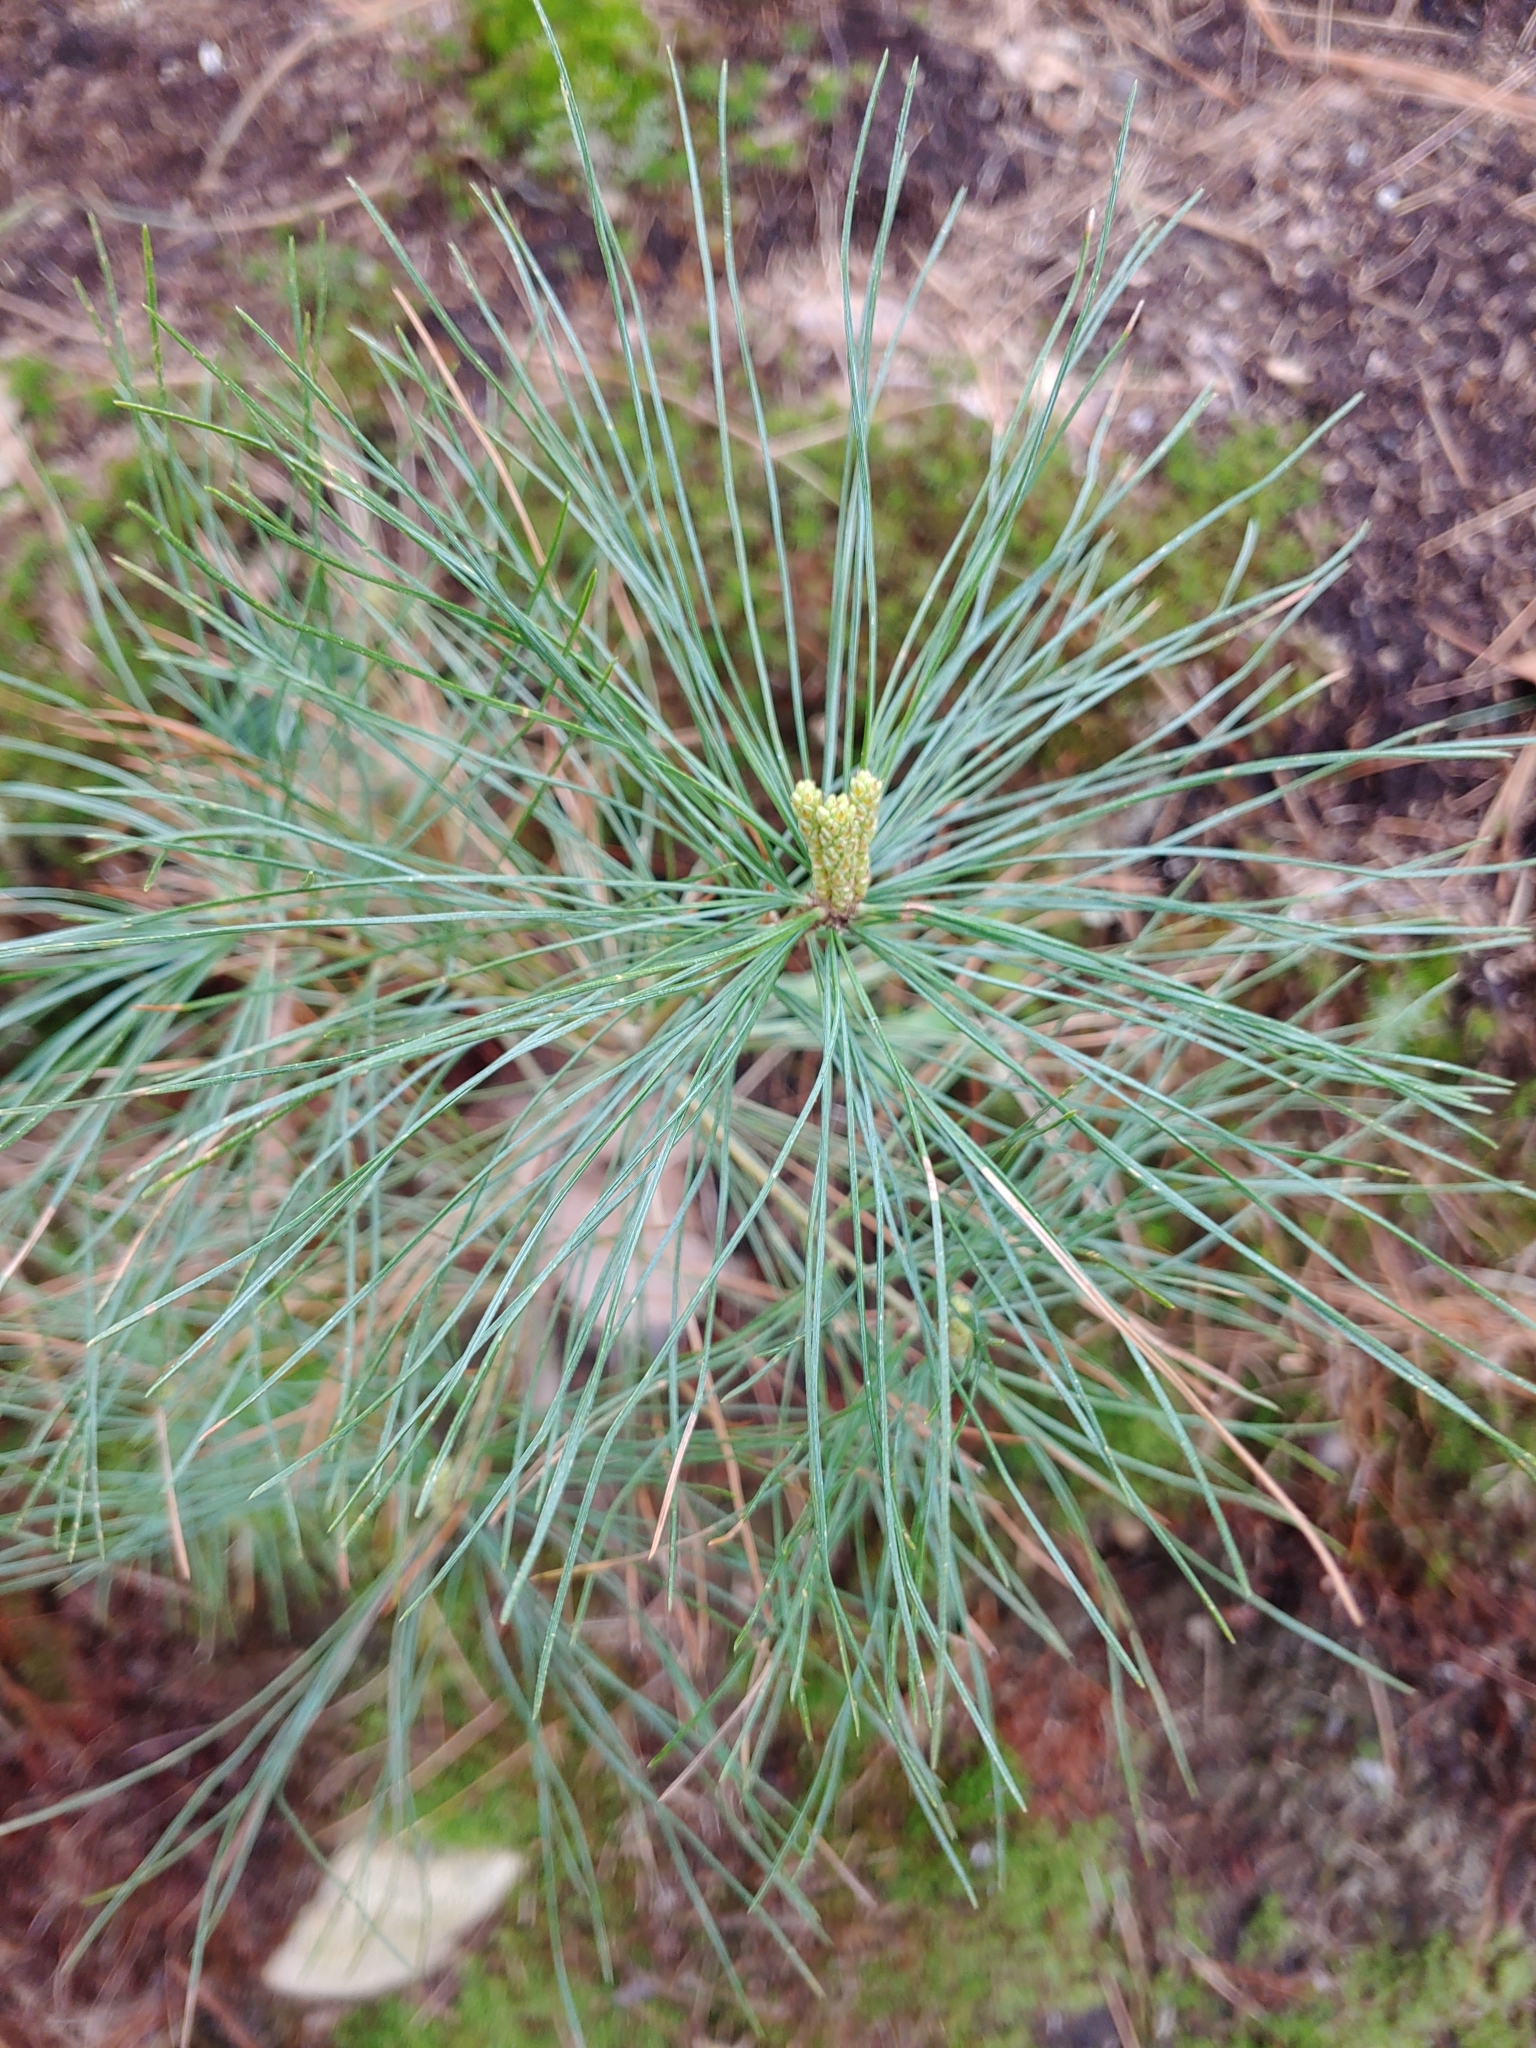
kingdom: Plantae
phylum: Tracheophyta
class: Pinopsida
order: Pinales
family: Pinaceae
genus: Pinus
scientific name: Pinus strobus
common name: Weymouth pine
